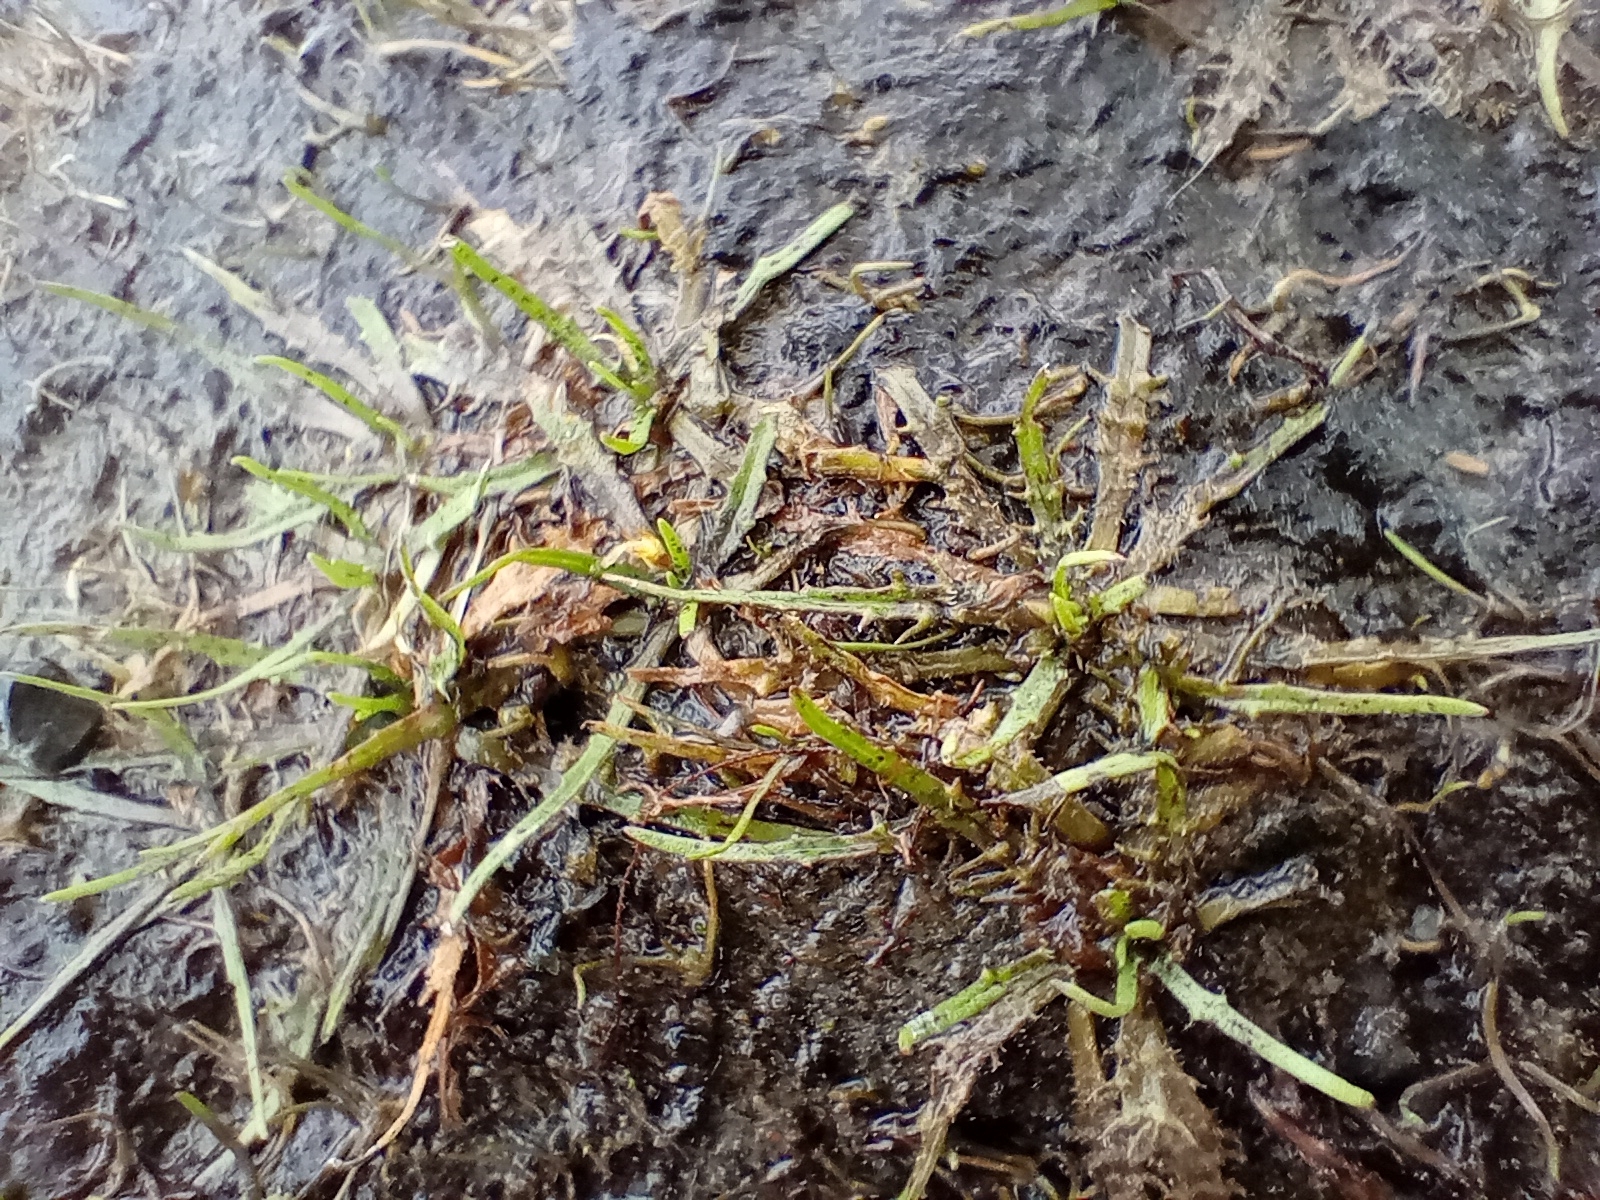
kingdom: Plantae
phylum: Tracheophyta
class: Magnoliopsida
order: Lamiales
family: Plantaginaceae
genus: Plantago
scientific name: Plantago triandra
